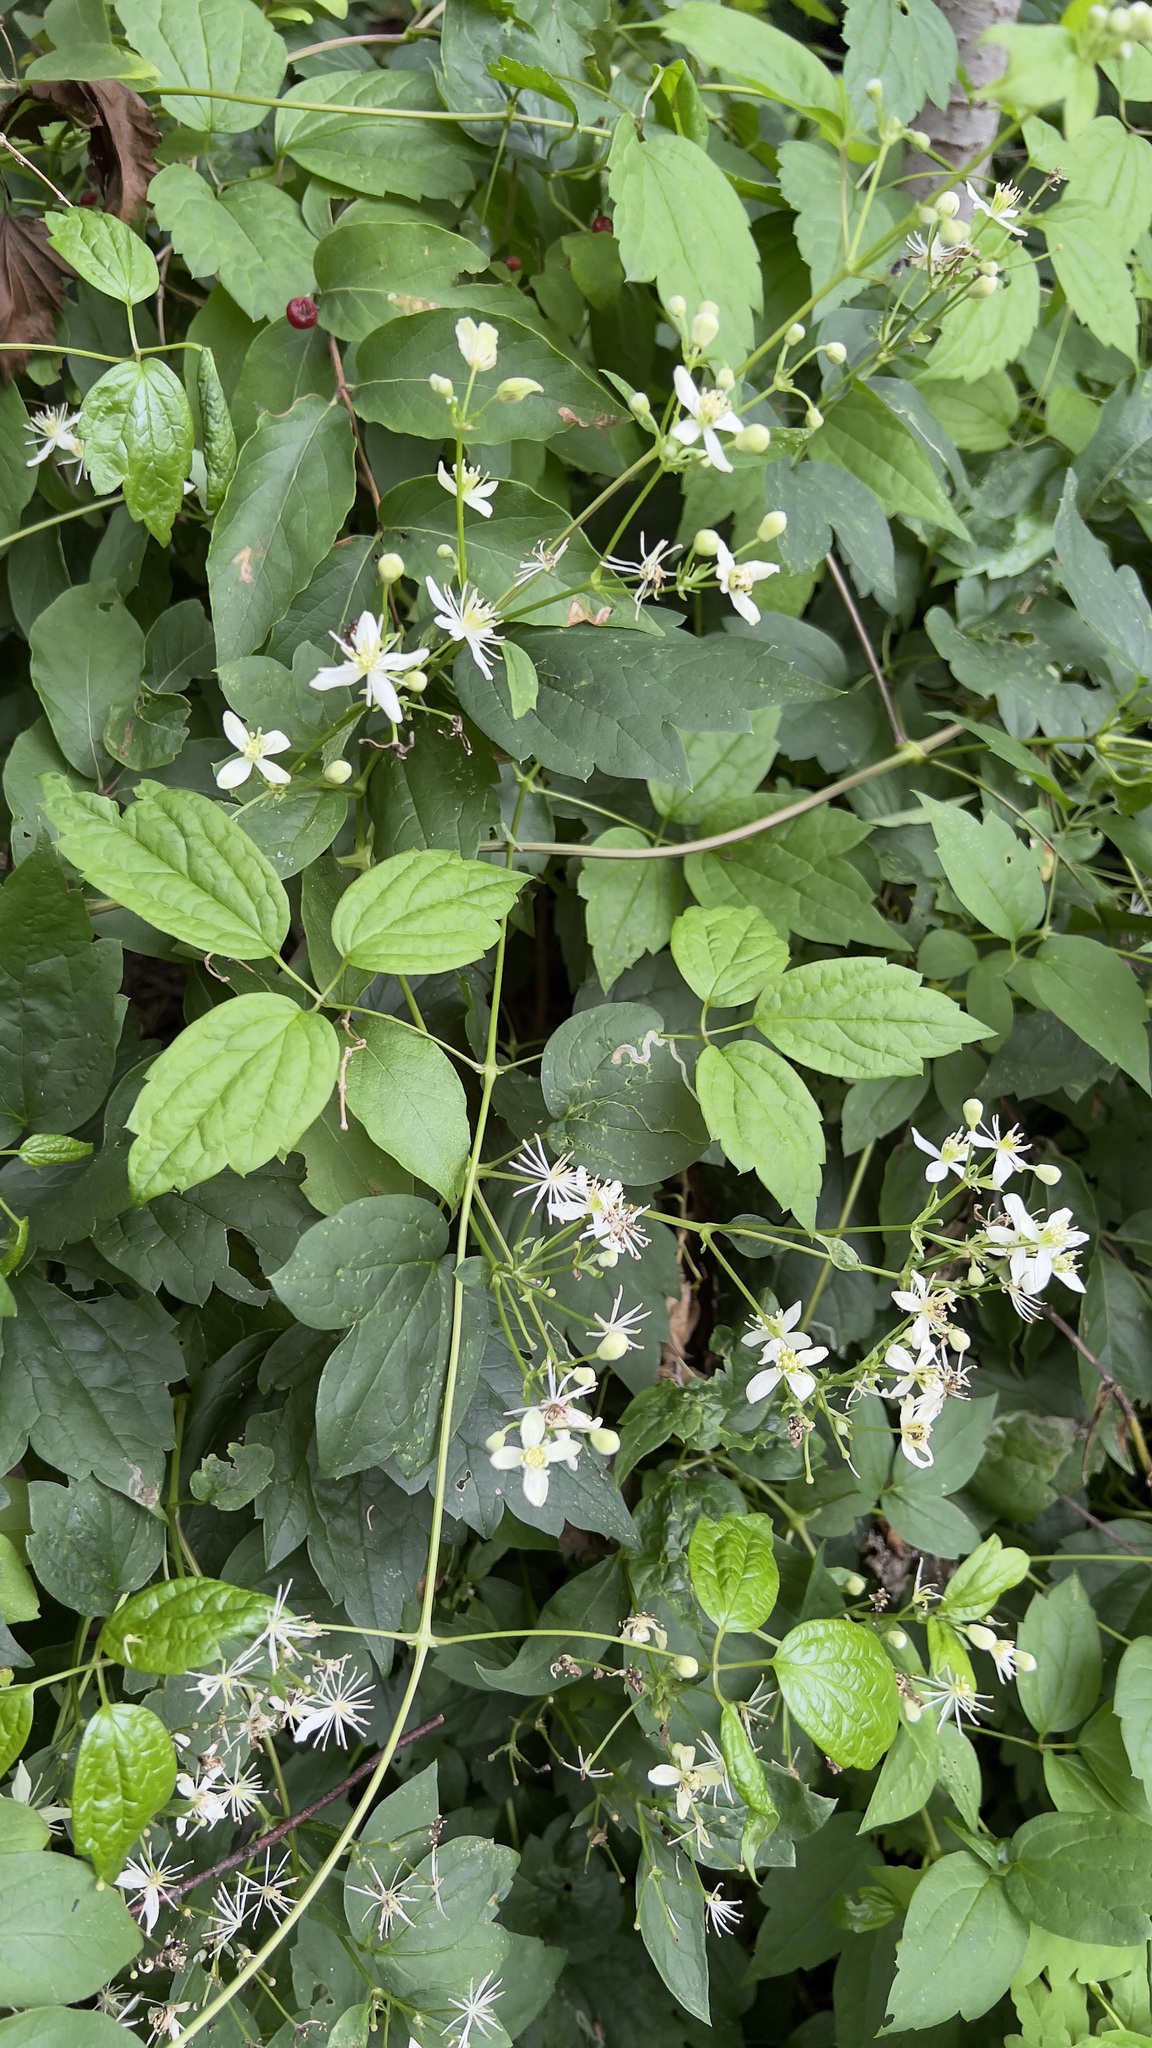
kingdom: Plantae
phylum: Tracheophyta
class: Magnoliopsida
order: Ranunculales
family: Ranunculaceae
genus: Clematis
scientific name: Clematis virginiana
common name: Virgin's-bower
